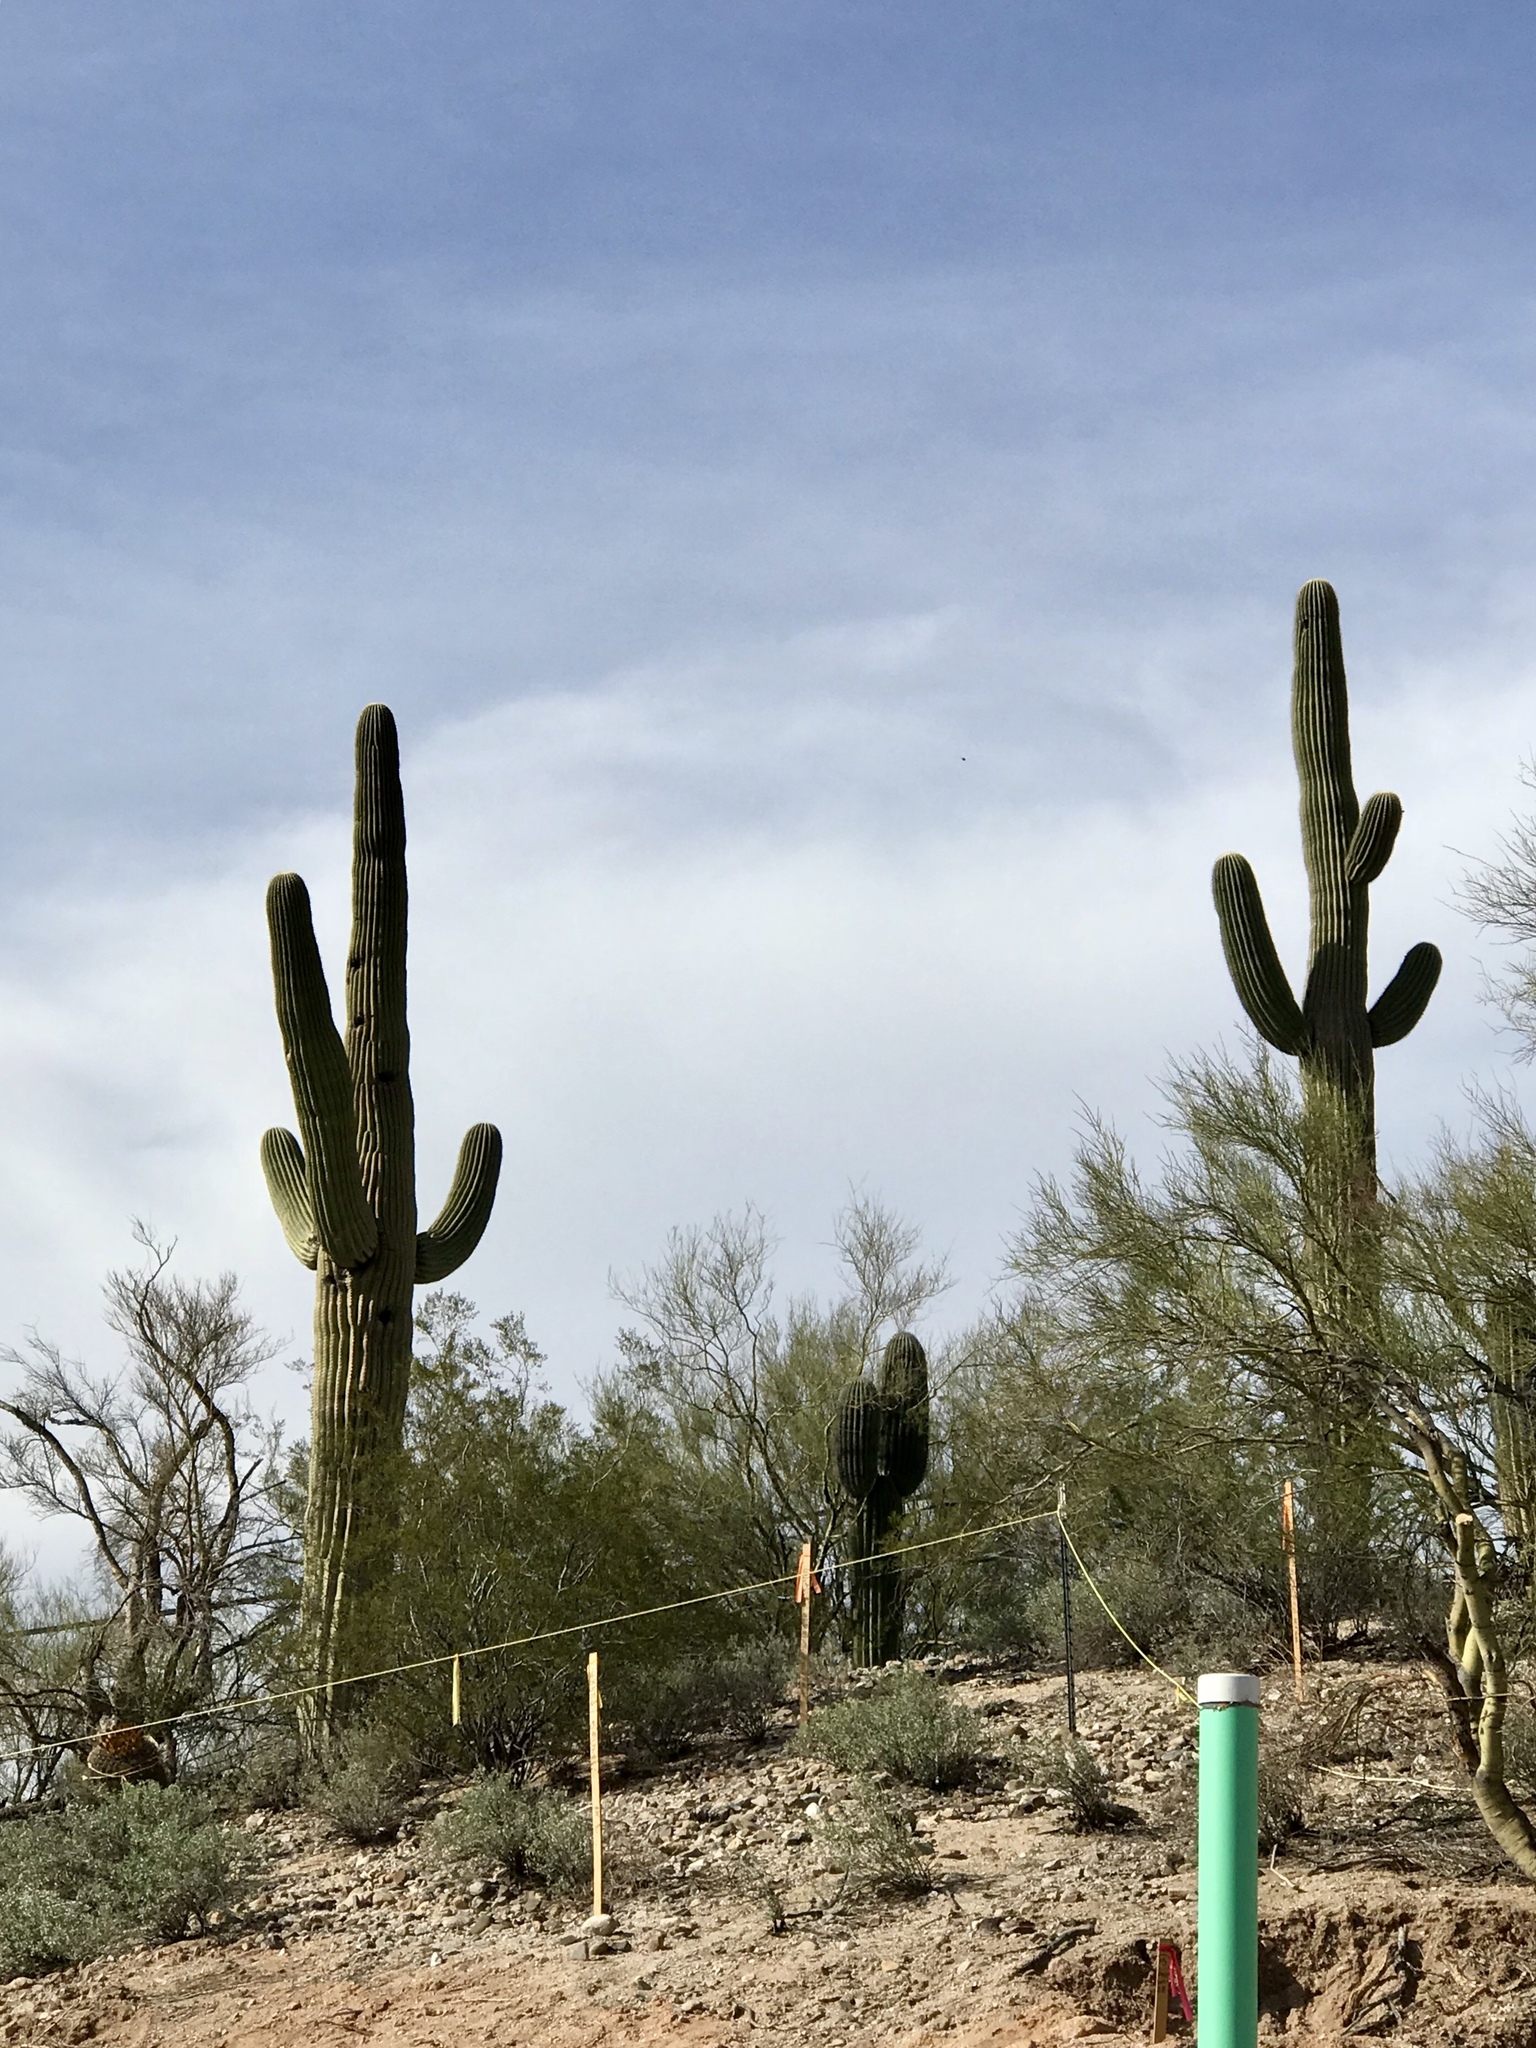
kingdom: Plantae
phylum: Tracheophyta
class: Magnoliopsida
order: Caryophyllales
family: Cactaceae
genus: Carnegiea
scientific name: Carnegiea gigantea
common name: Saguaro
